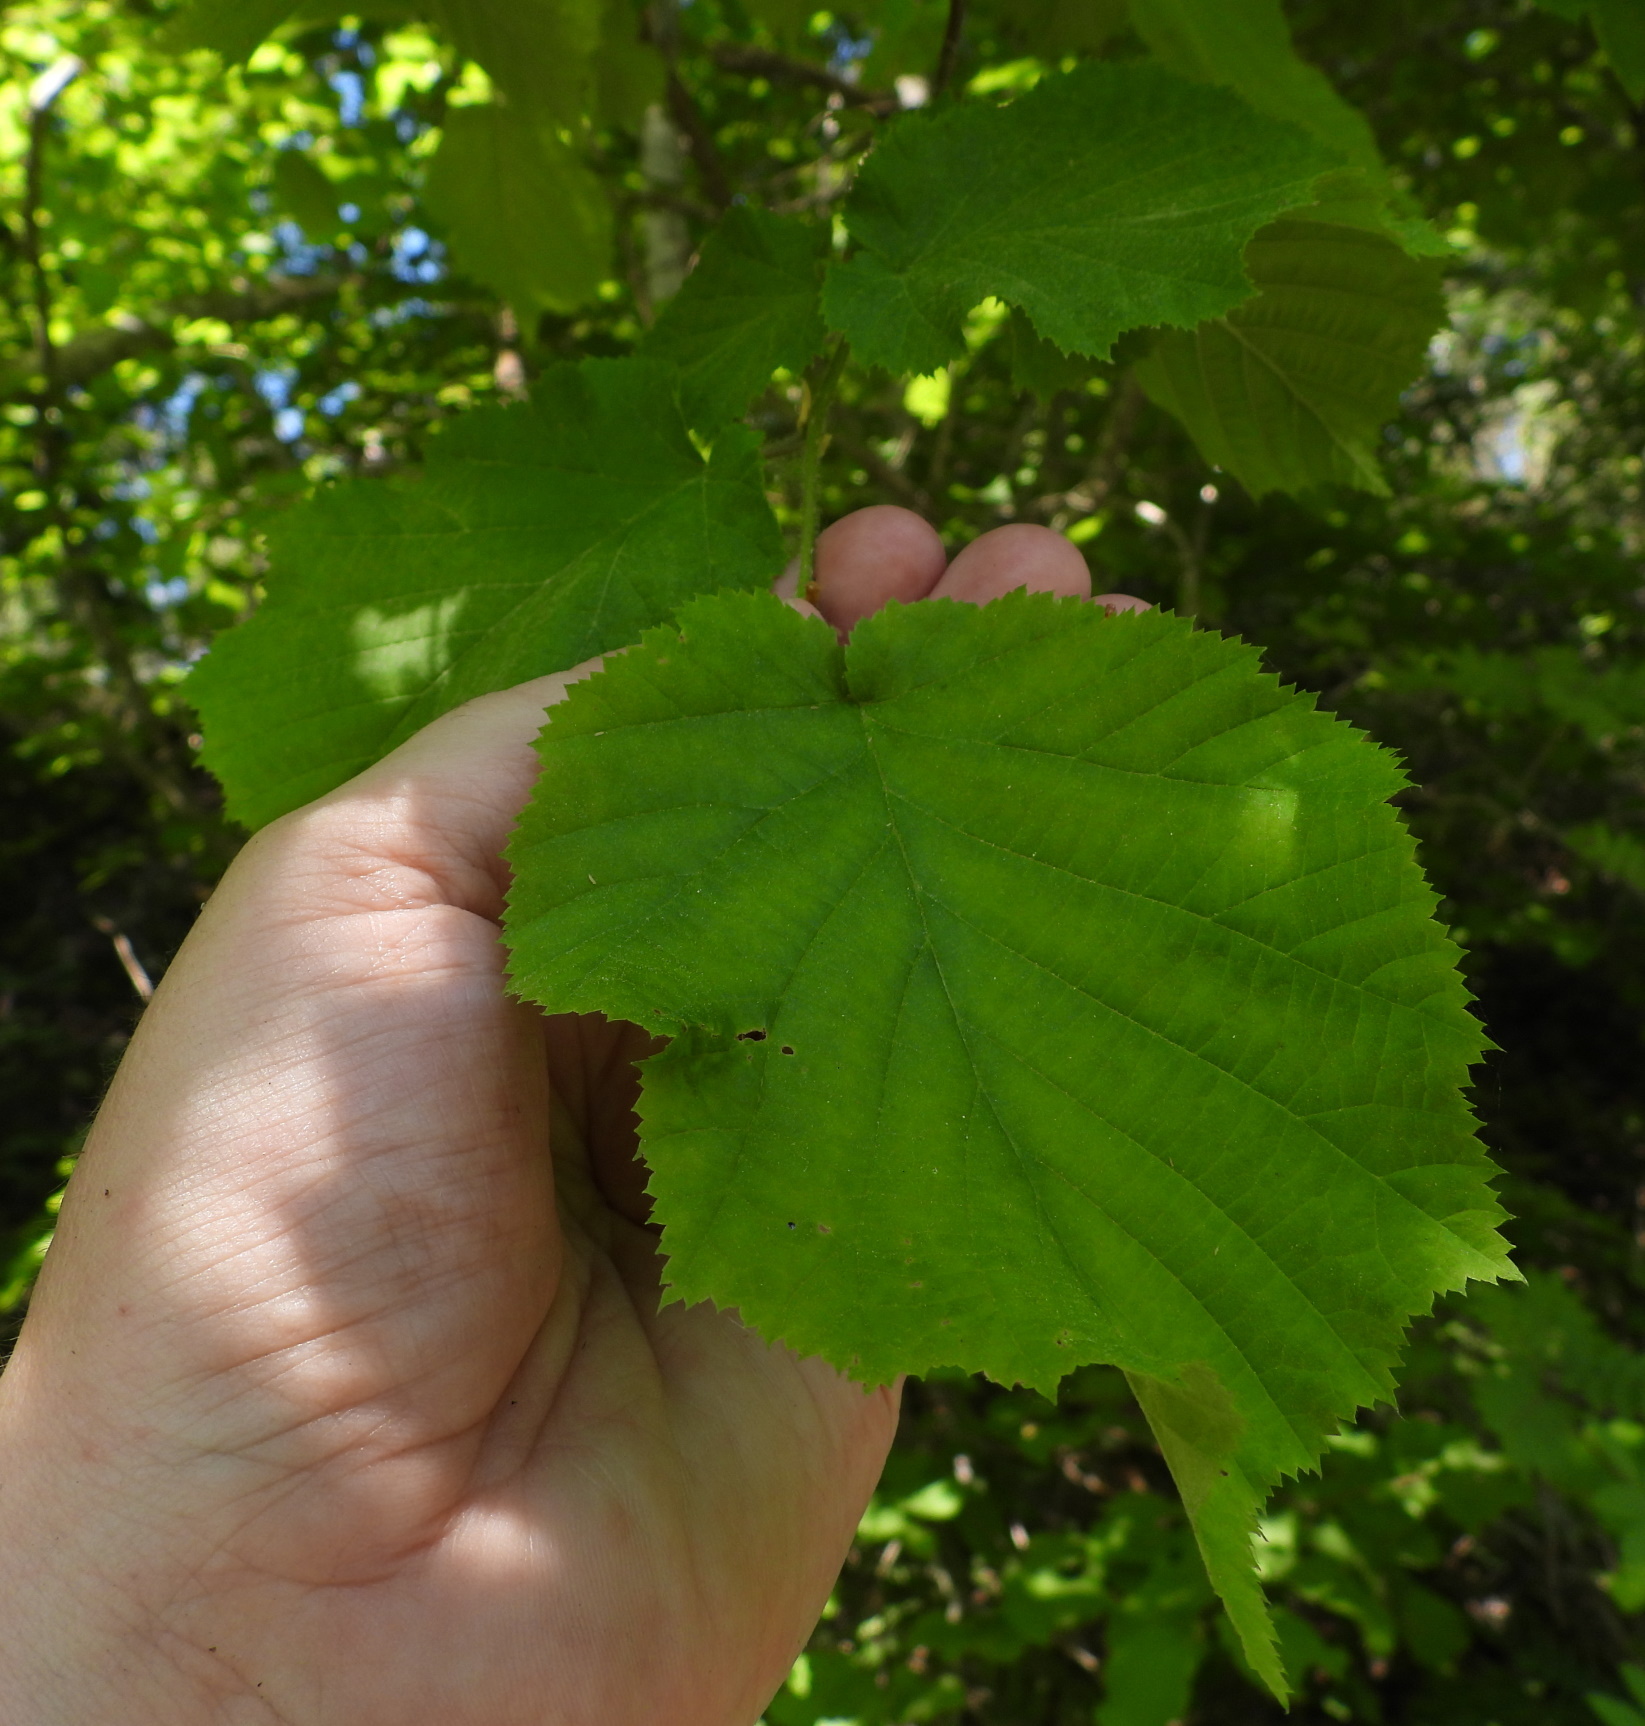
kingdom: Plantae
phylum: Tracheophyta
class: Magnoliopsida
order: Fagales
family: Betulaceae
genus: Corylus
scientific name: Corylus avellana
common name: European hazel
